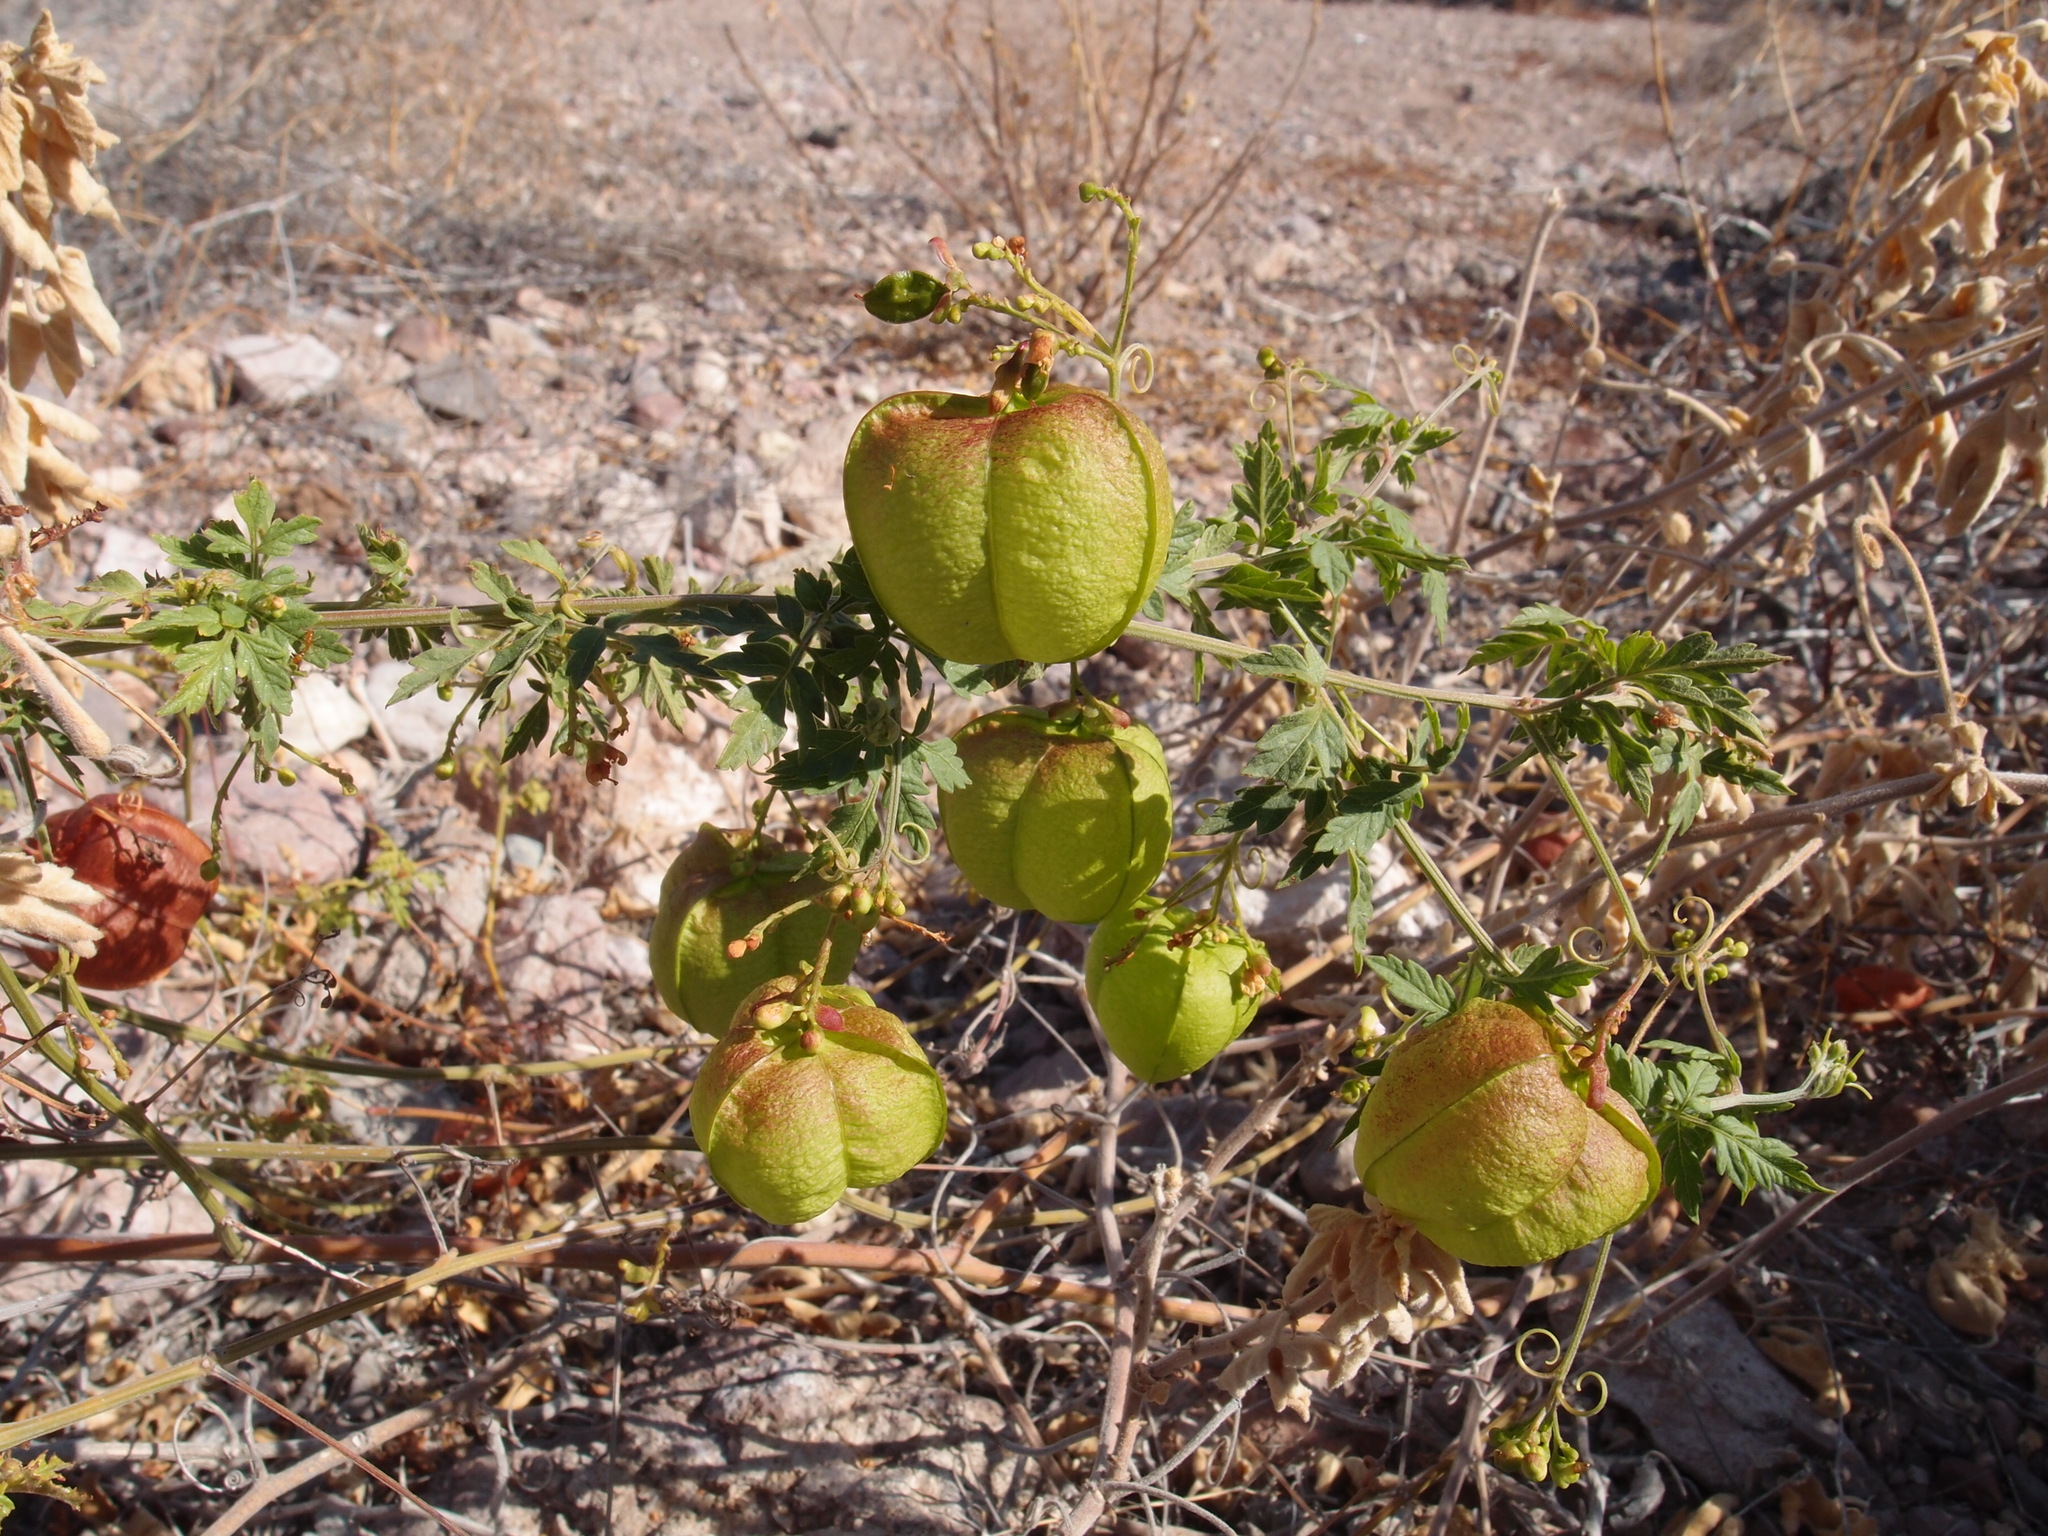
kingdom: Plantae
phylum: Tracheophyta
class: Magnoliopsida
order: Sapindales
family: Sapindaceae
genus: Cardiospermum
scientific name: Cardiospermum corindum
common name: Faux persil
